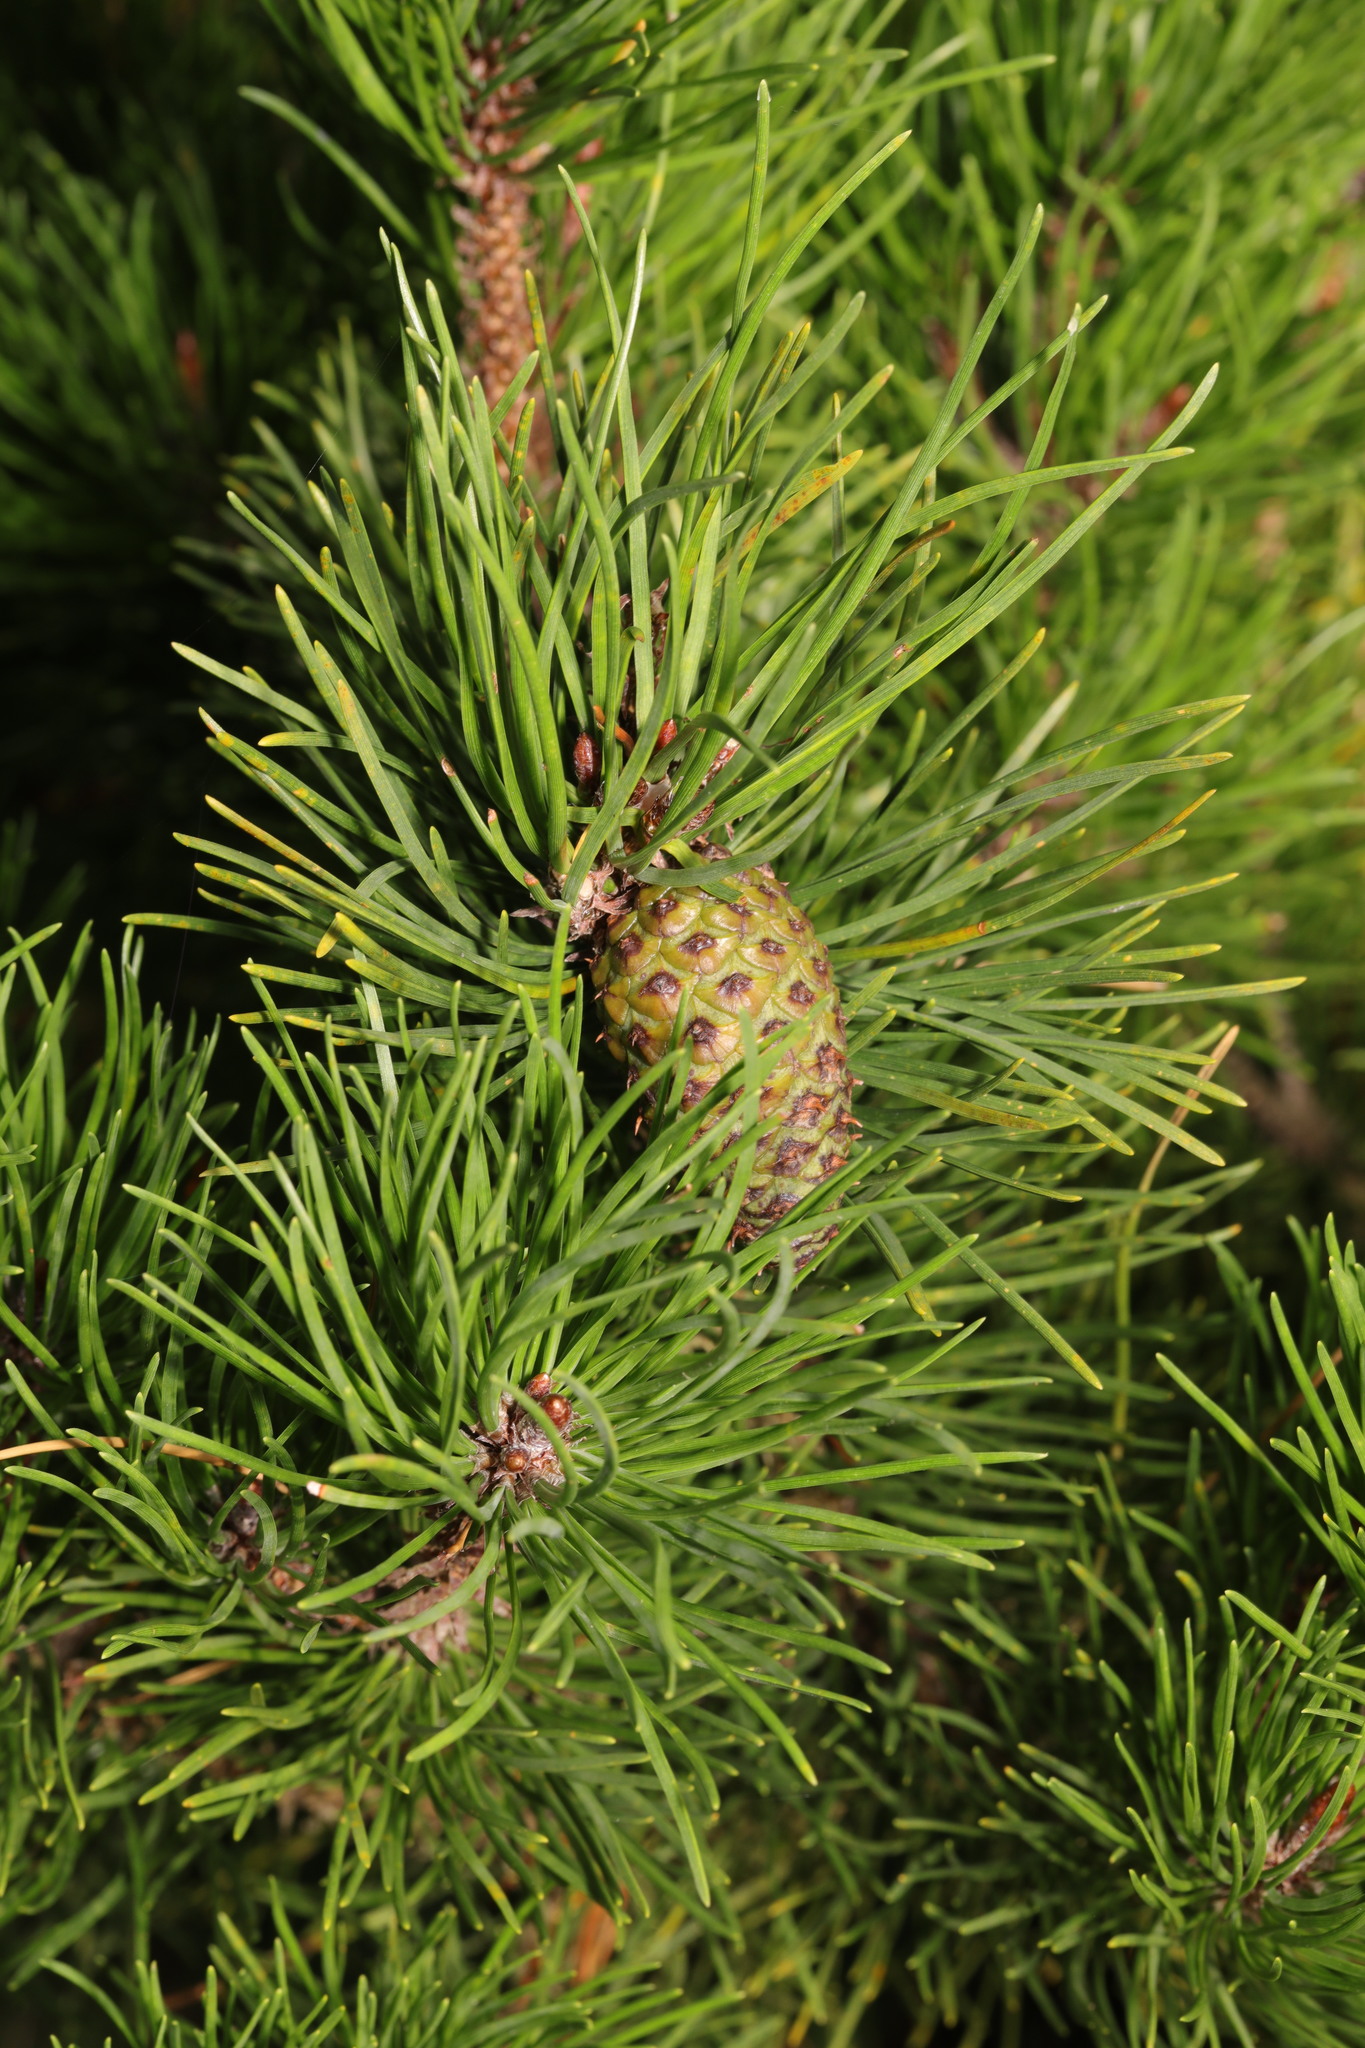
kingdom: Plantae
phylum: Tracheophyta
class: Pinopsida
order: Pinales
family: Pinaceae
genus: Pinus
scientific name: Pinus sylvestris
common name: Scots pine
